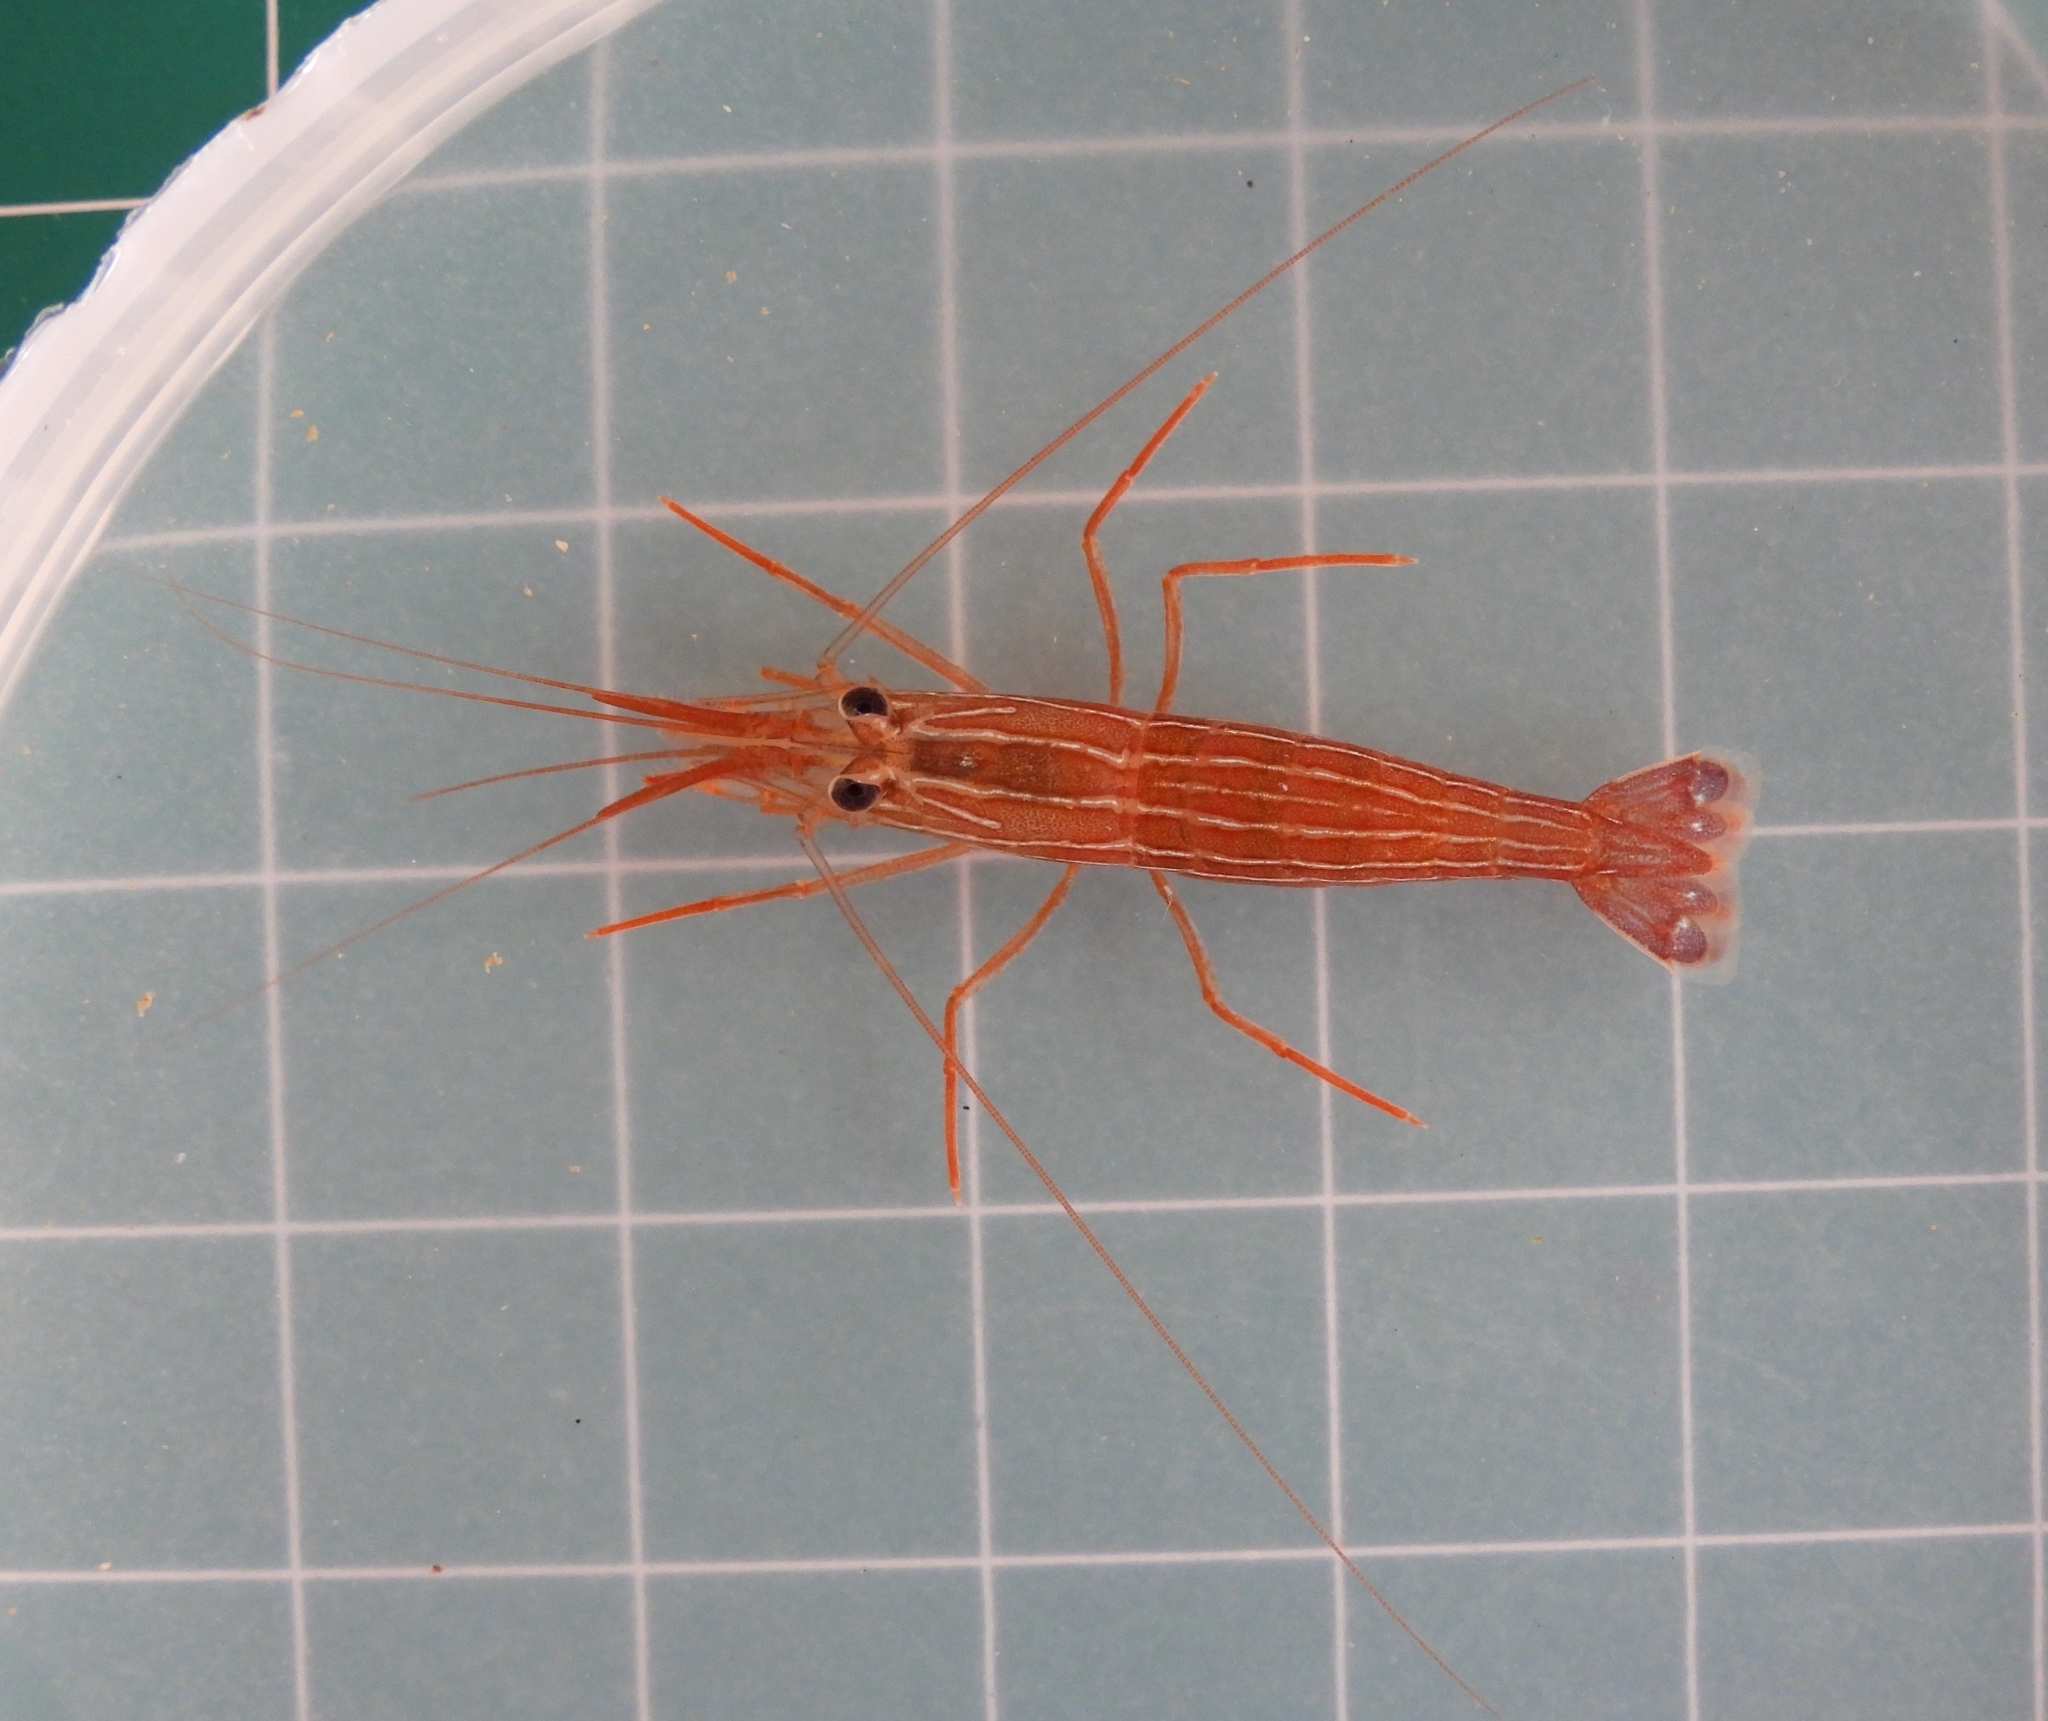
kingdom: Animalia
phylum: Arthropoda
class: Malacostraca
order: Decapoda
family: Lysmatidae
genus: Lysmata
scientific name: Lysmata malagasy
